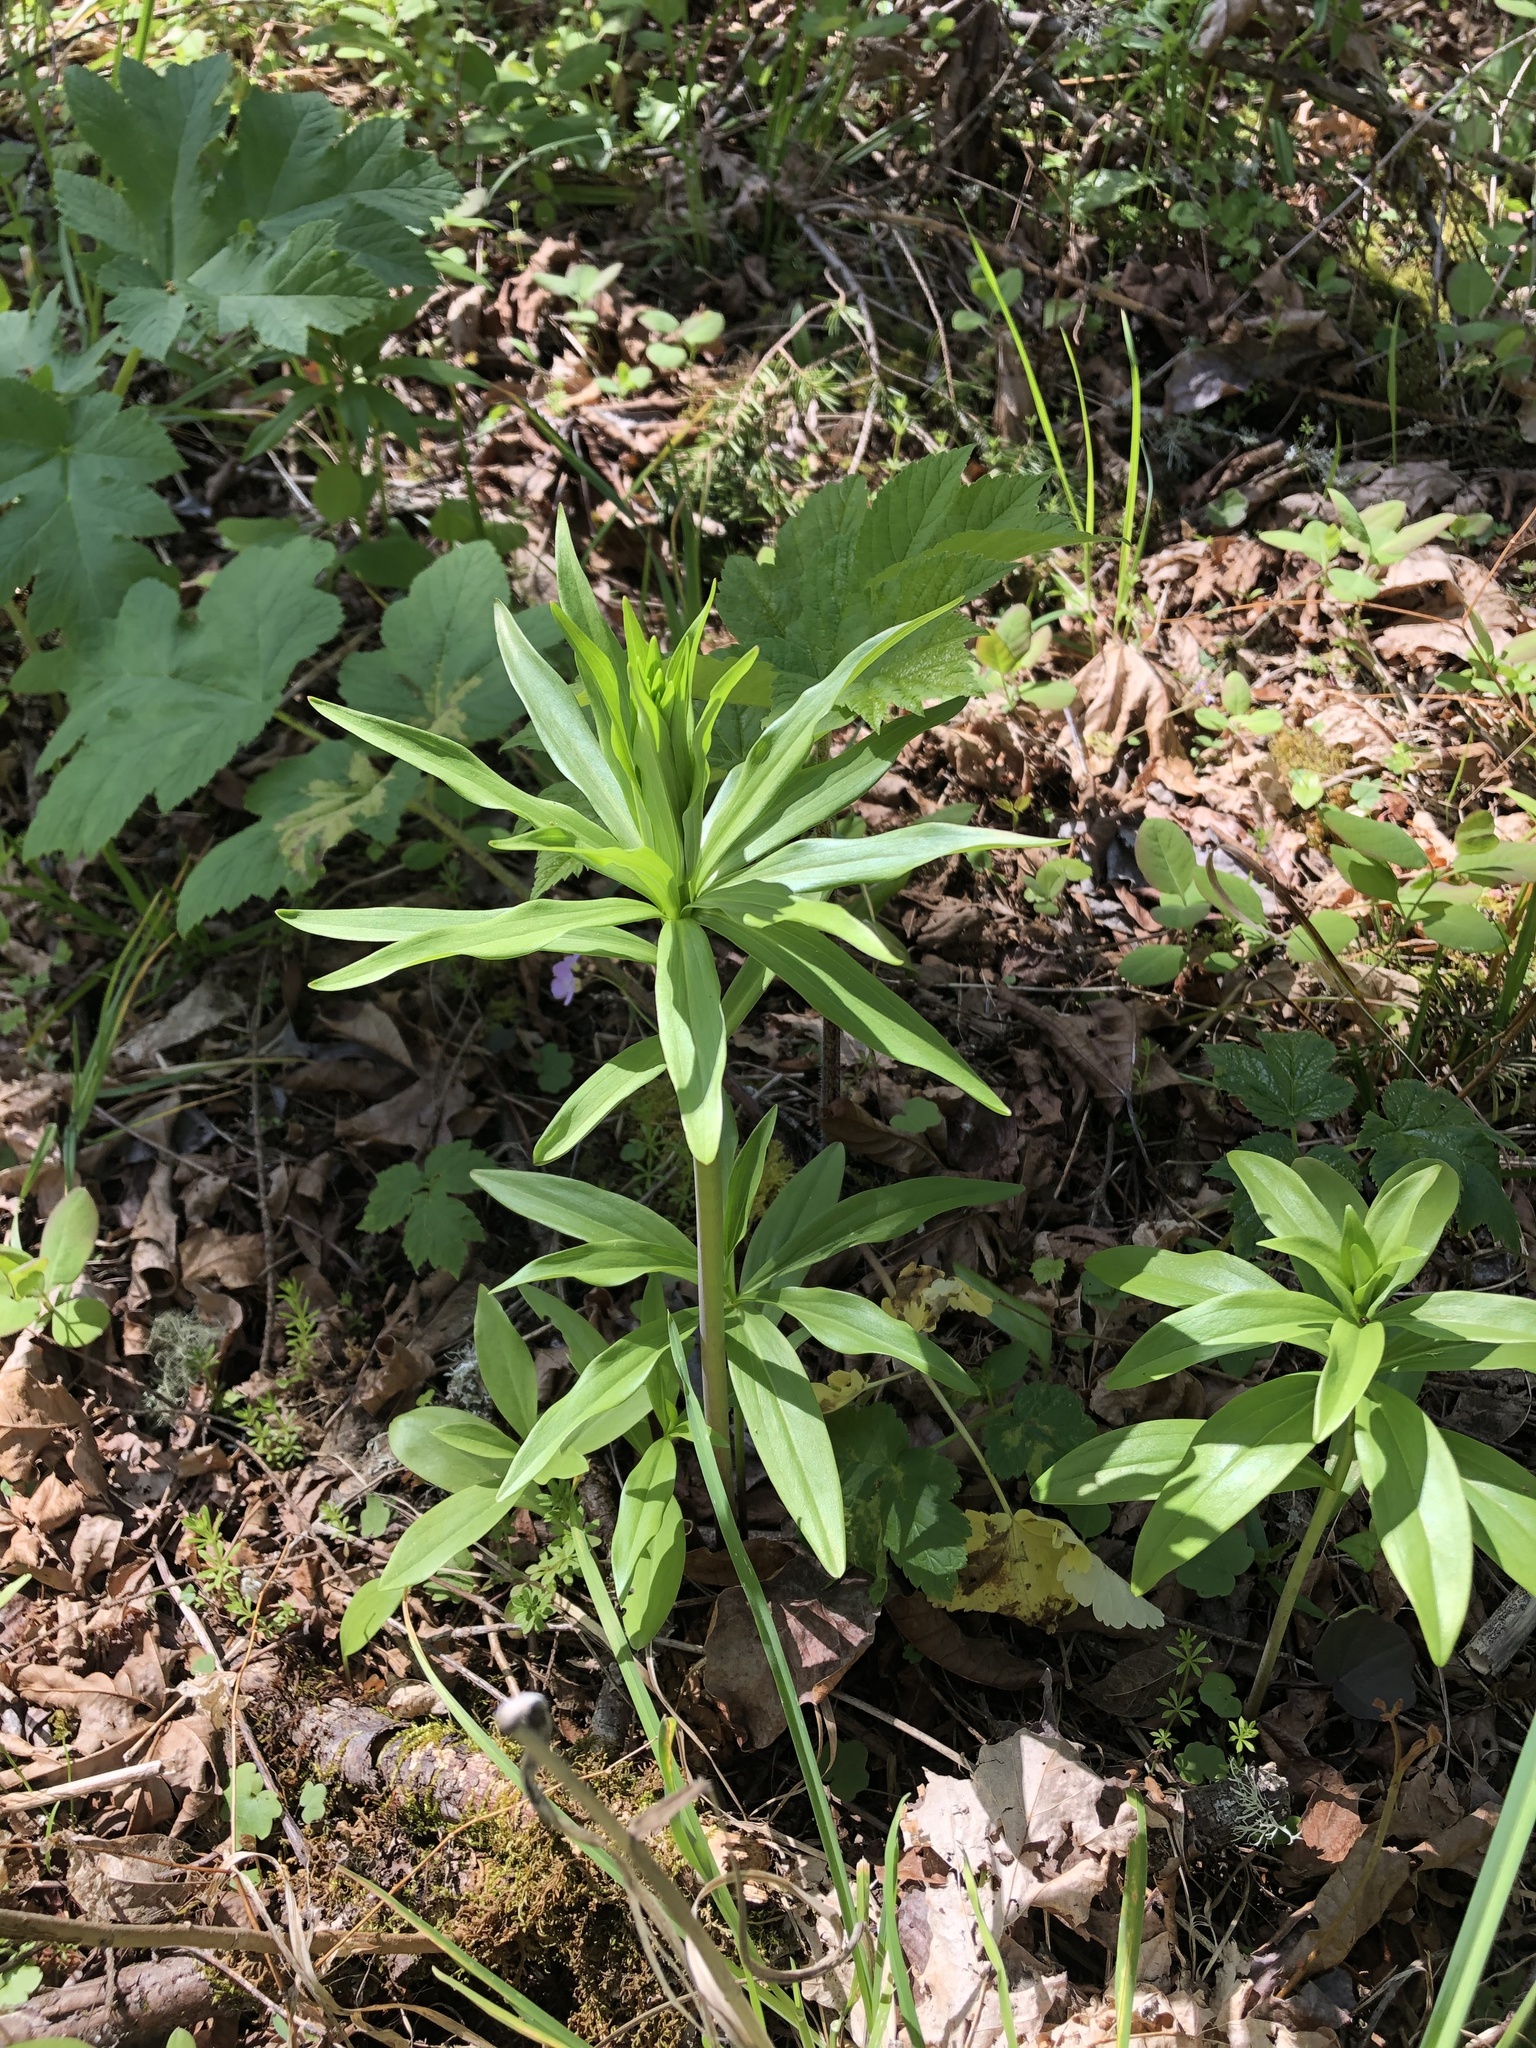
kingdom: Plantae
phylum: Tracheophyta
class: Liliopsida
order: Liliales
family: Liliaceae
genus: Lilium
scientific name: Lilium columbianum
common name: Columbia lily
